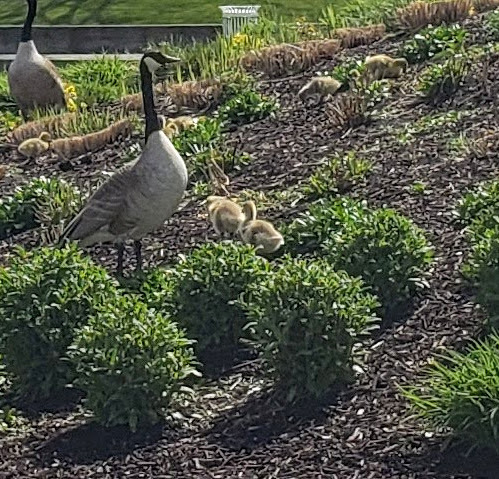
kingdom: Animalia
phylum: Chordata
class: Aves
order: Anseriformes
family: Anatidae
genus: Branta
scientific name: Branta canadensis
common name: Canada goose
